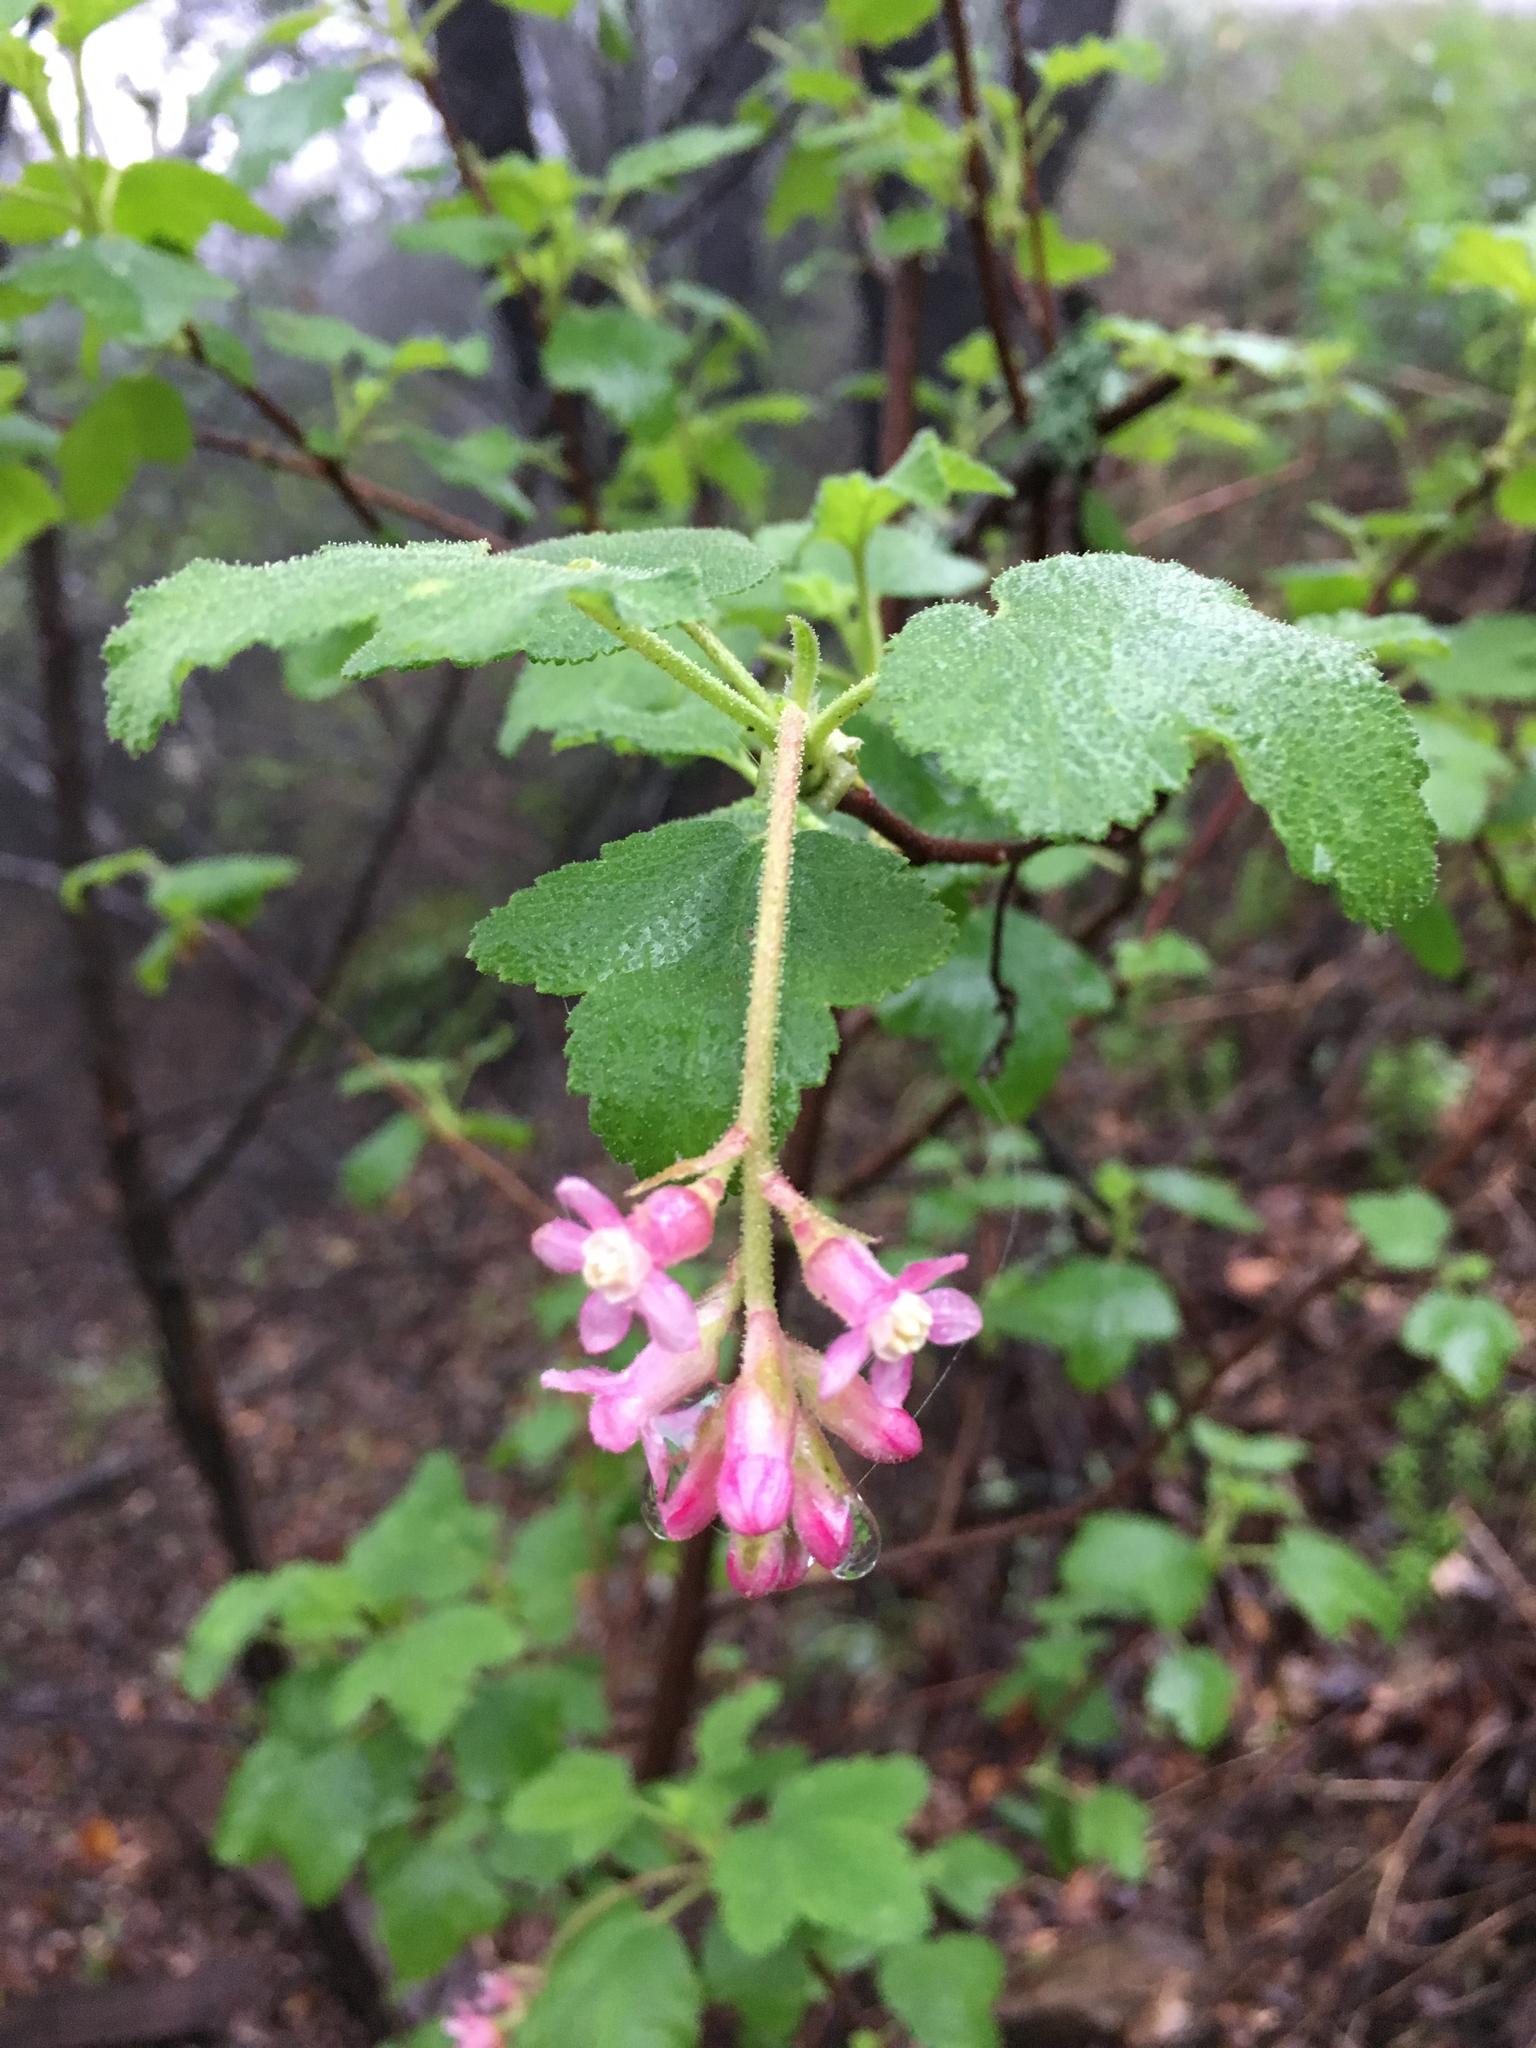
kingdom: Plantae
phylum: Tracheophyta
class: Magnoliopsida
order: Saxifragales
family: Grossulariaceae
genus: Ribes
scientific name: Ribes malvaceum
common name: Chaparral currant
